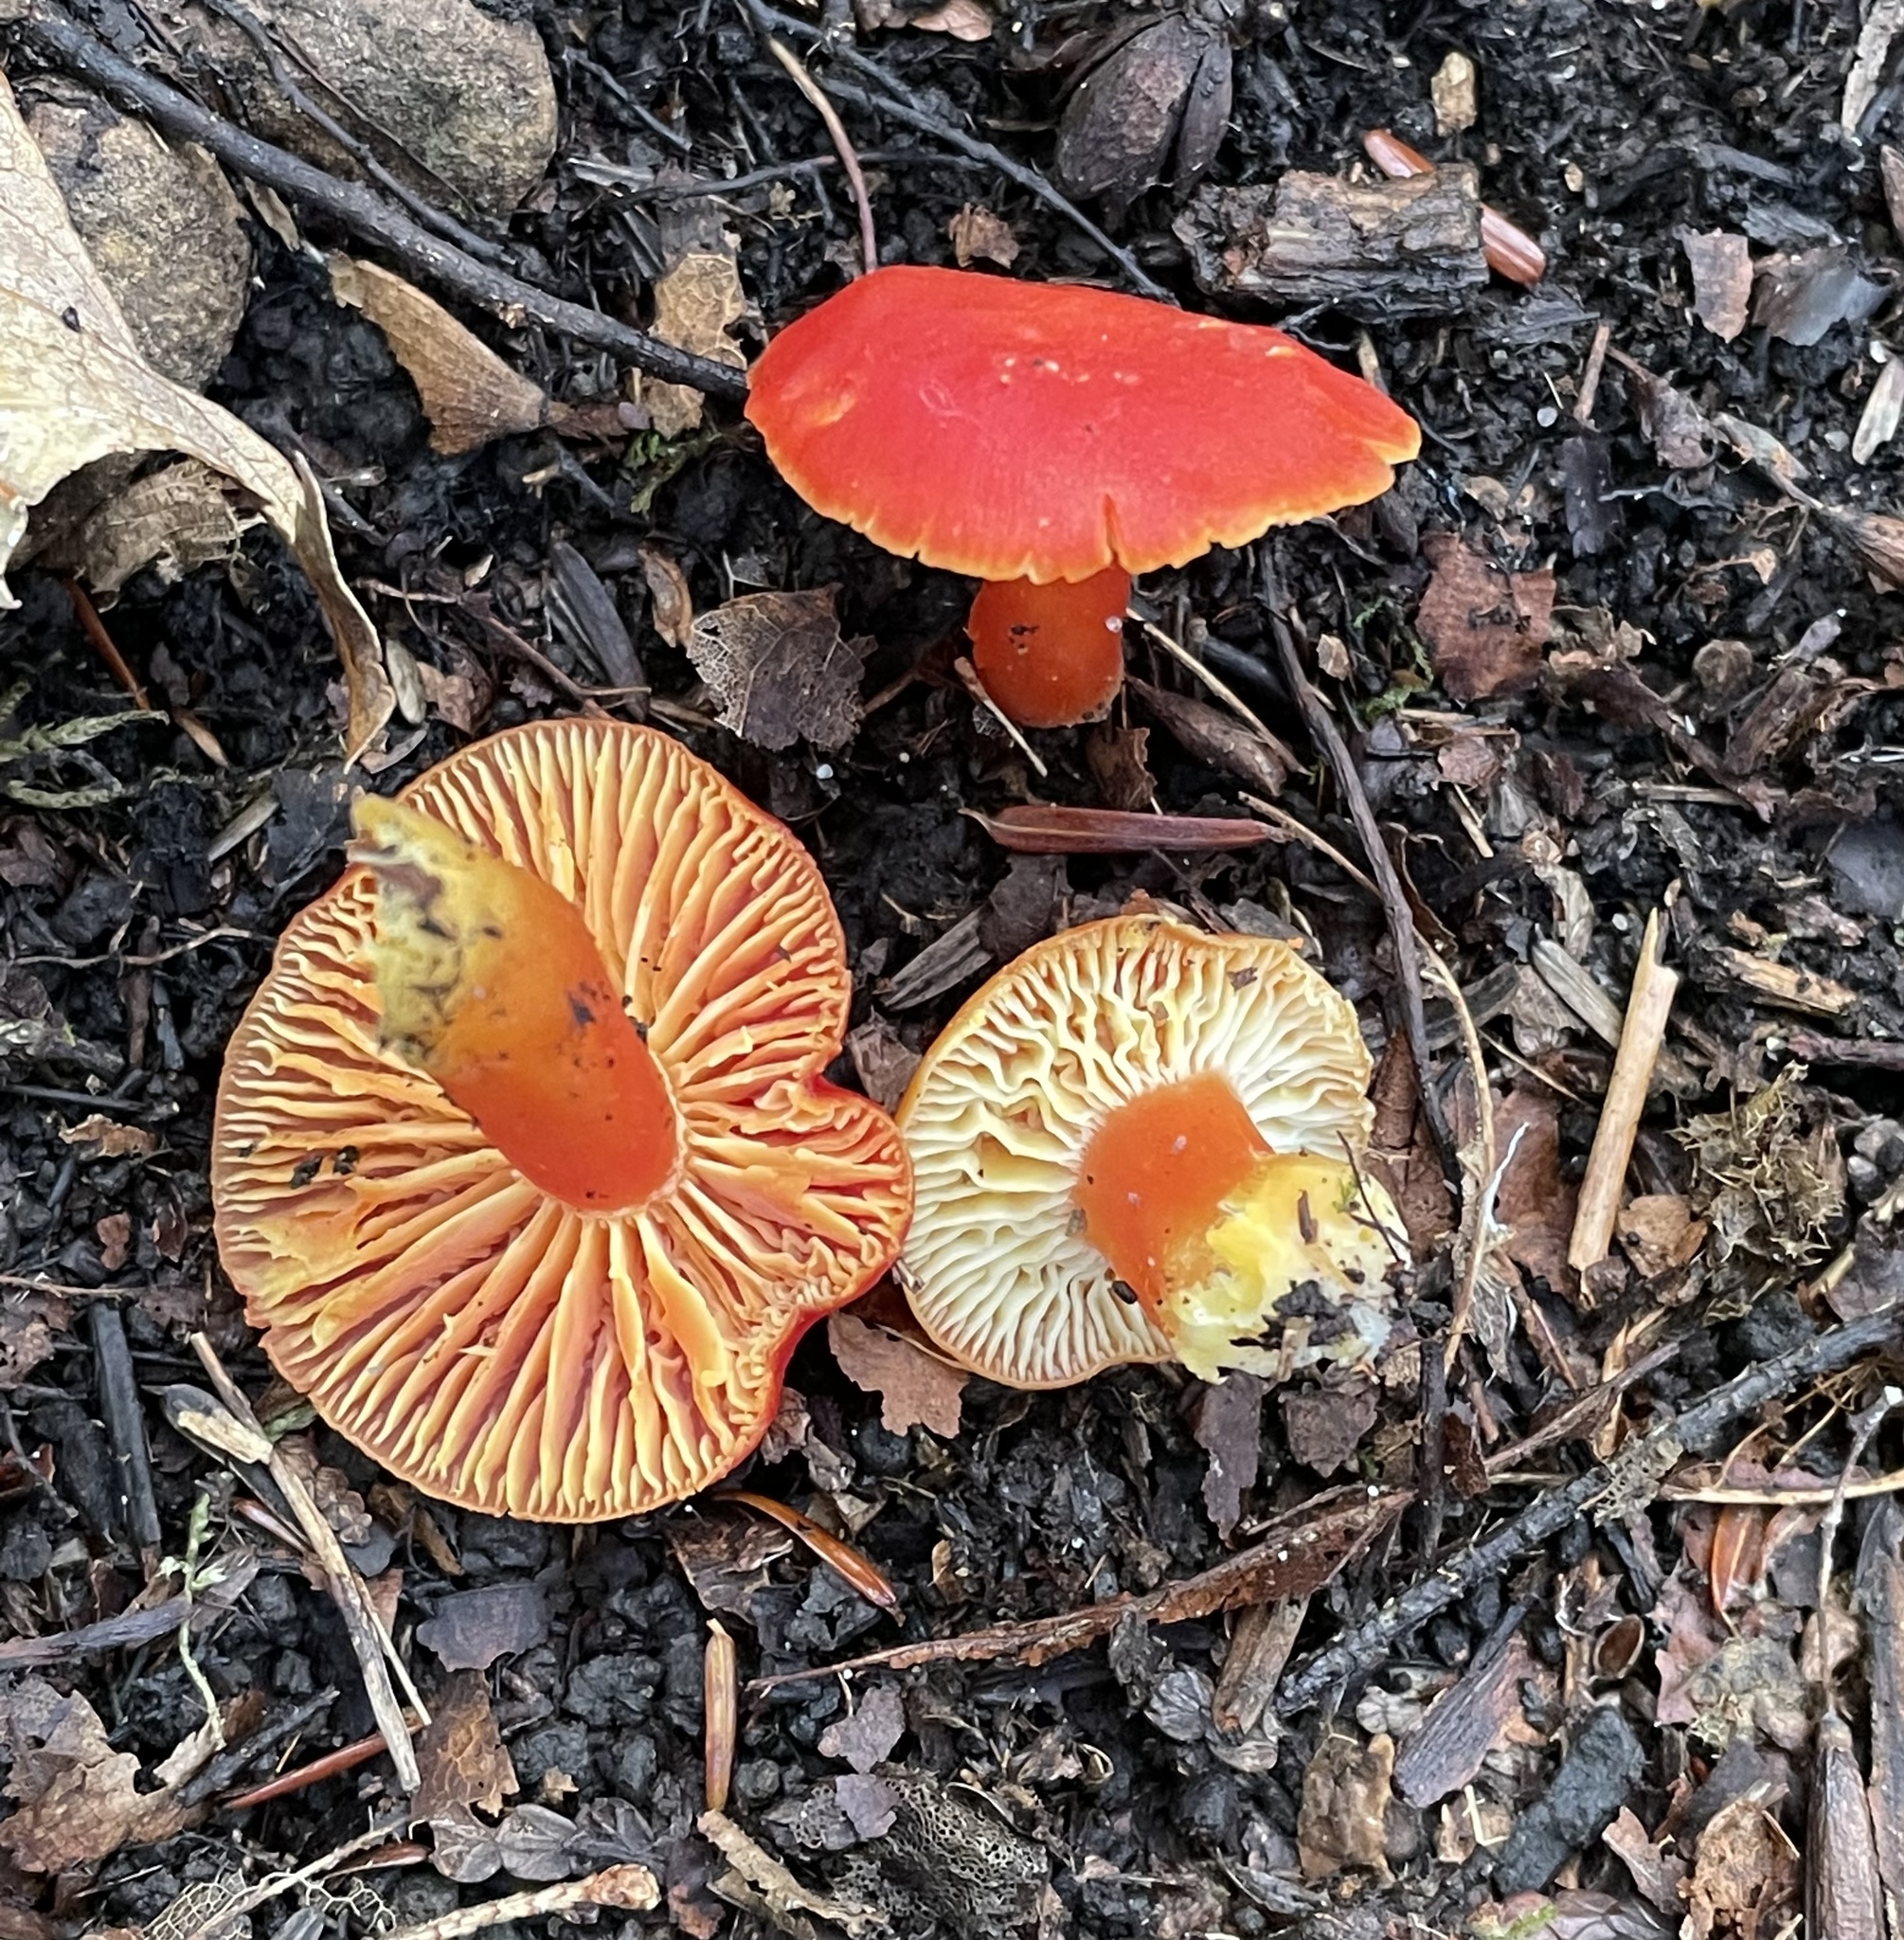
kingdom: Fungi
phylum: Basidiomycota
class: Agaricomycetes
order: Agaricales
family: Hygrophoraceae
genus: Hygrocybe
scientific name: Hygrocybe punicea
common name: Crimson waxcap
